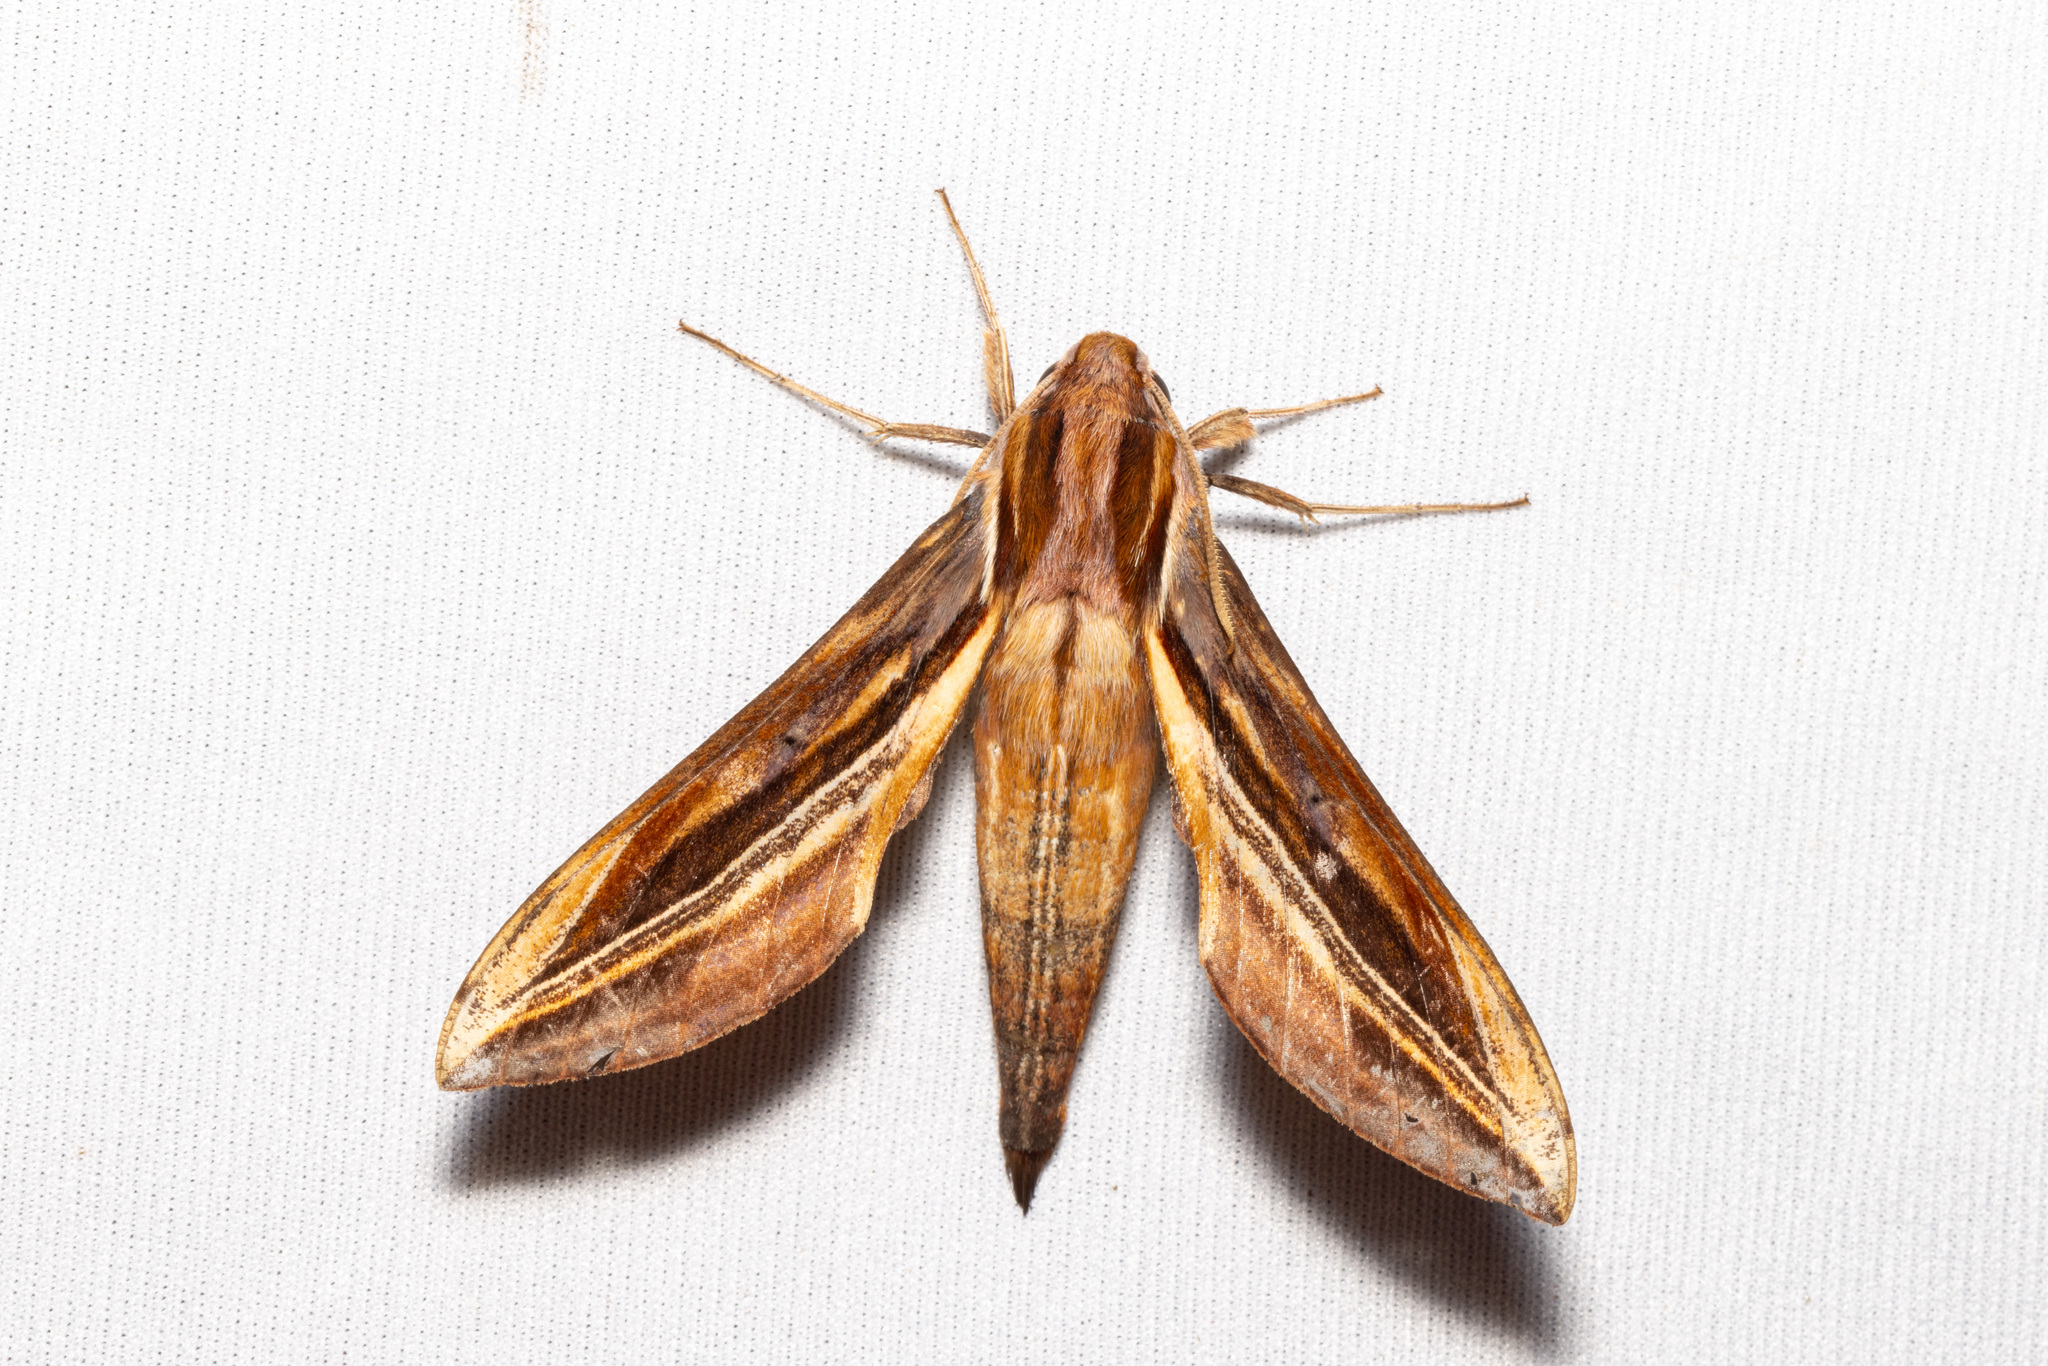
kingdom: Animalia
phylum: Arthropoda
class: Insecta
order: Lepidoptera
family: Sphingidae
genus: Xylophanes
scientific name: Xylophanes pyrrhus
